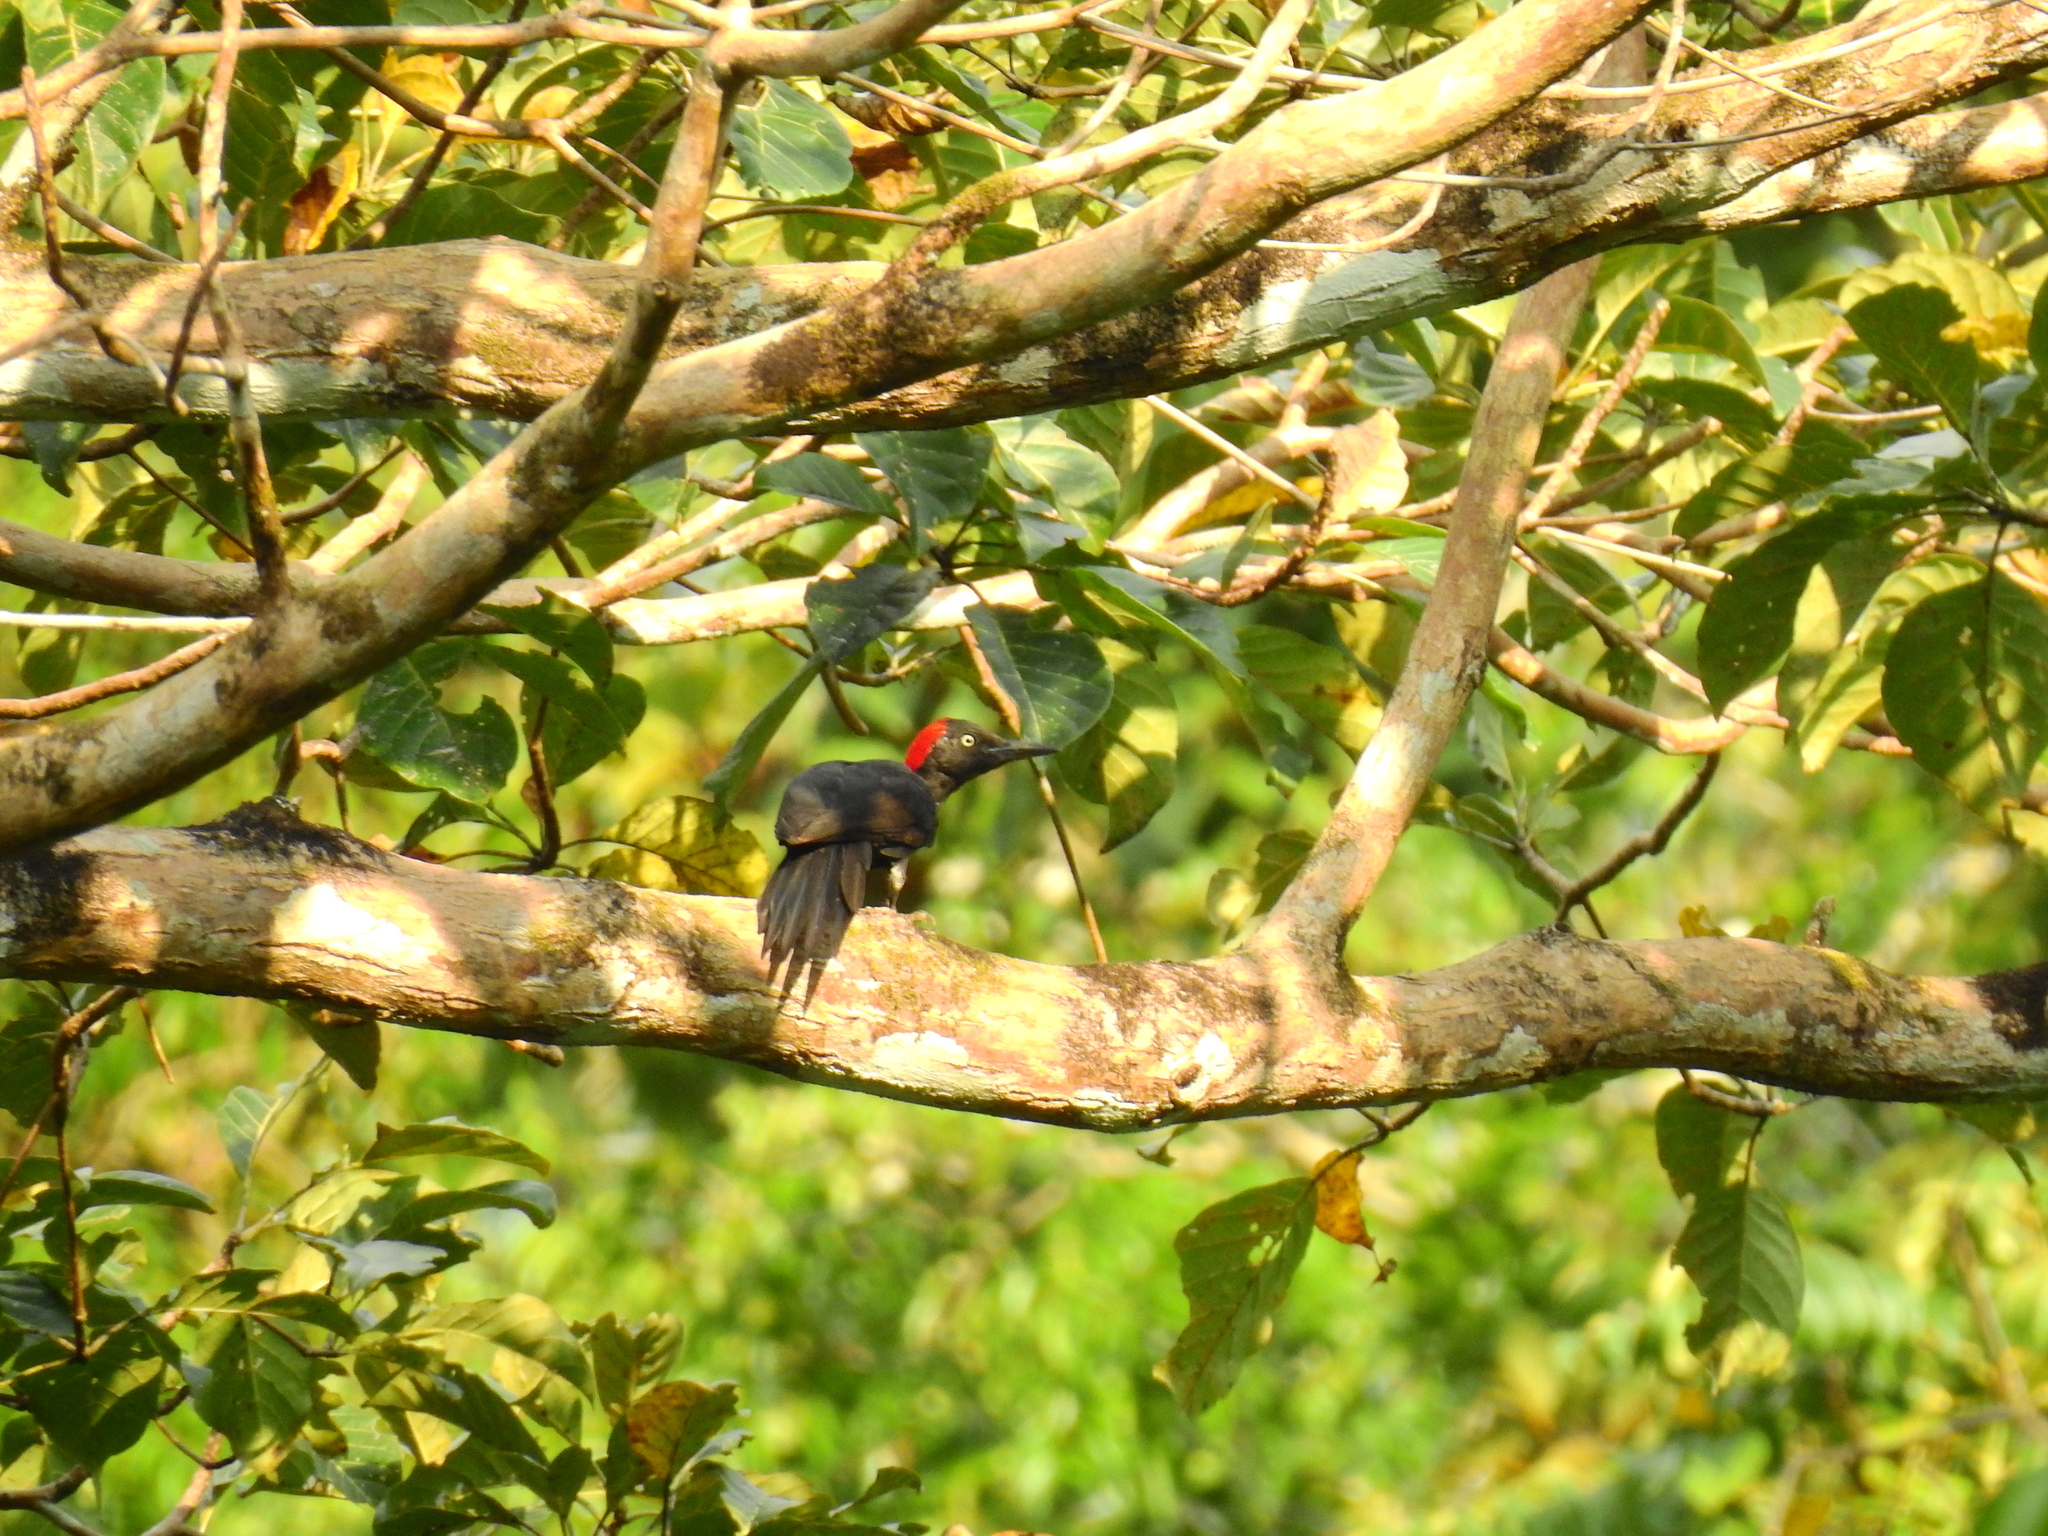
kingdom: Animalia
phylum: Chordata
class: Aves
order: Piciformes
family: Picidae
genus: Dryocopus
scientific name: Dryocopus hodgei
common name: Andaman woodpecker
